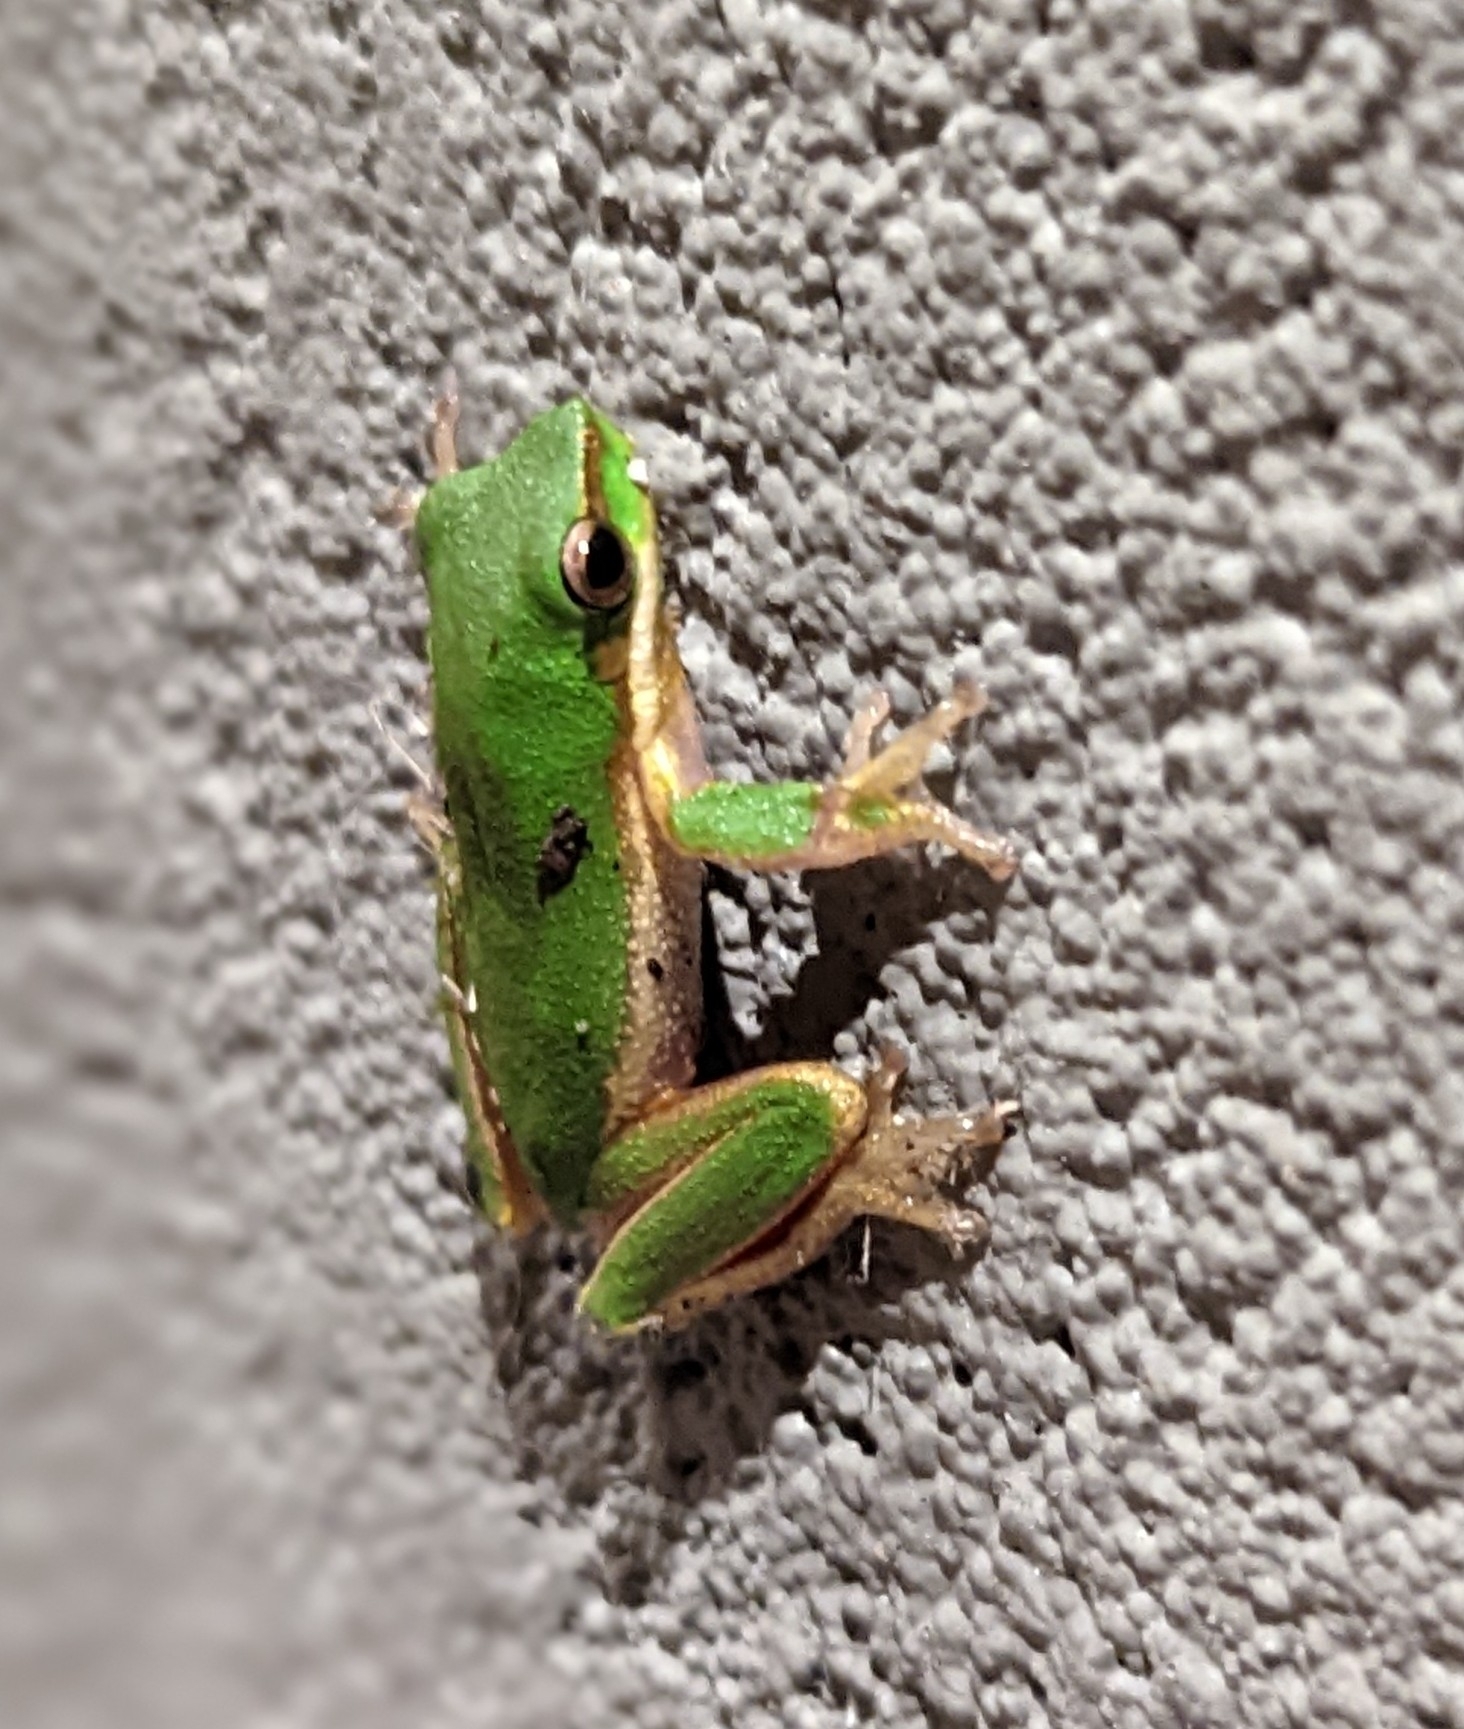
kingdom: Animalia
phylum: Chordata
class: Amphibia
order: Anura
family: Pelodryadidae
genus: Litoria
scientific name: Litoria fallax
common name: Eastern dwarf treefrog
